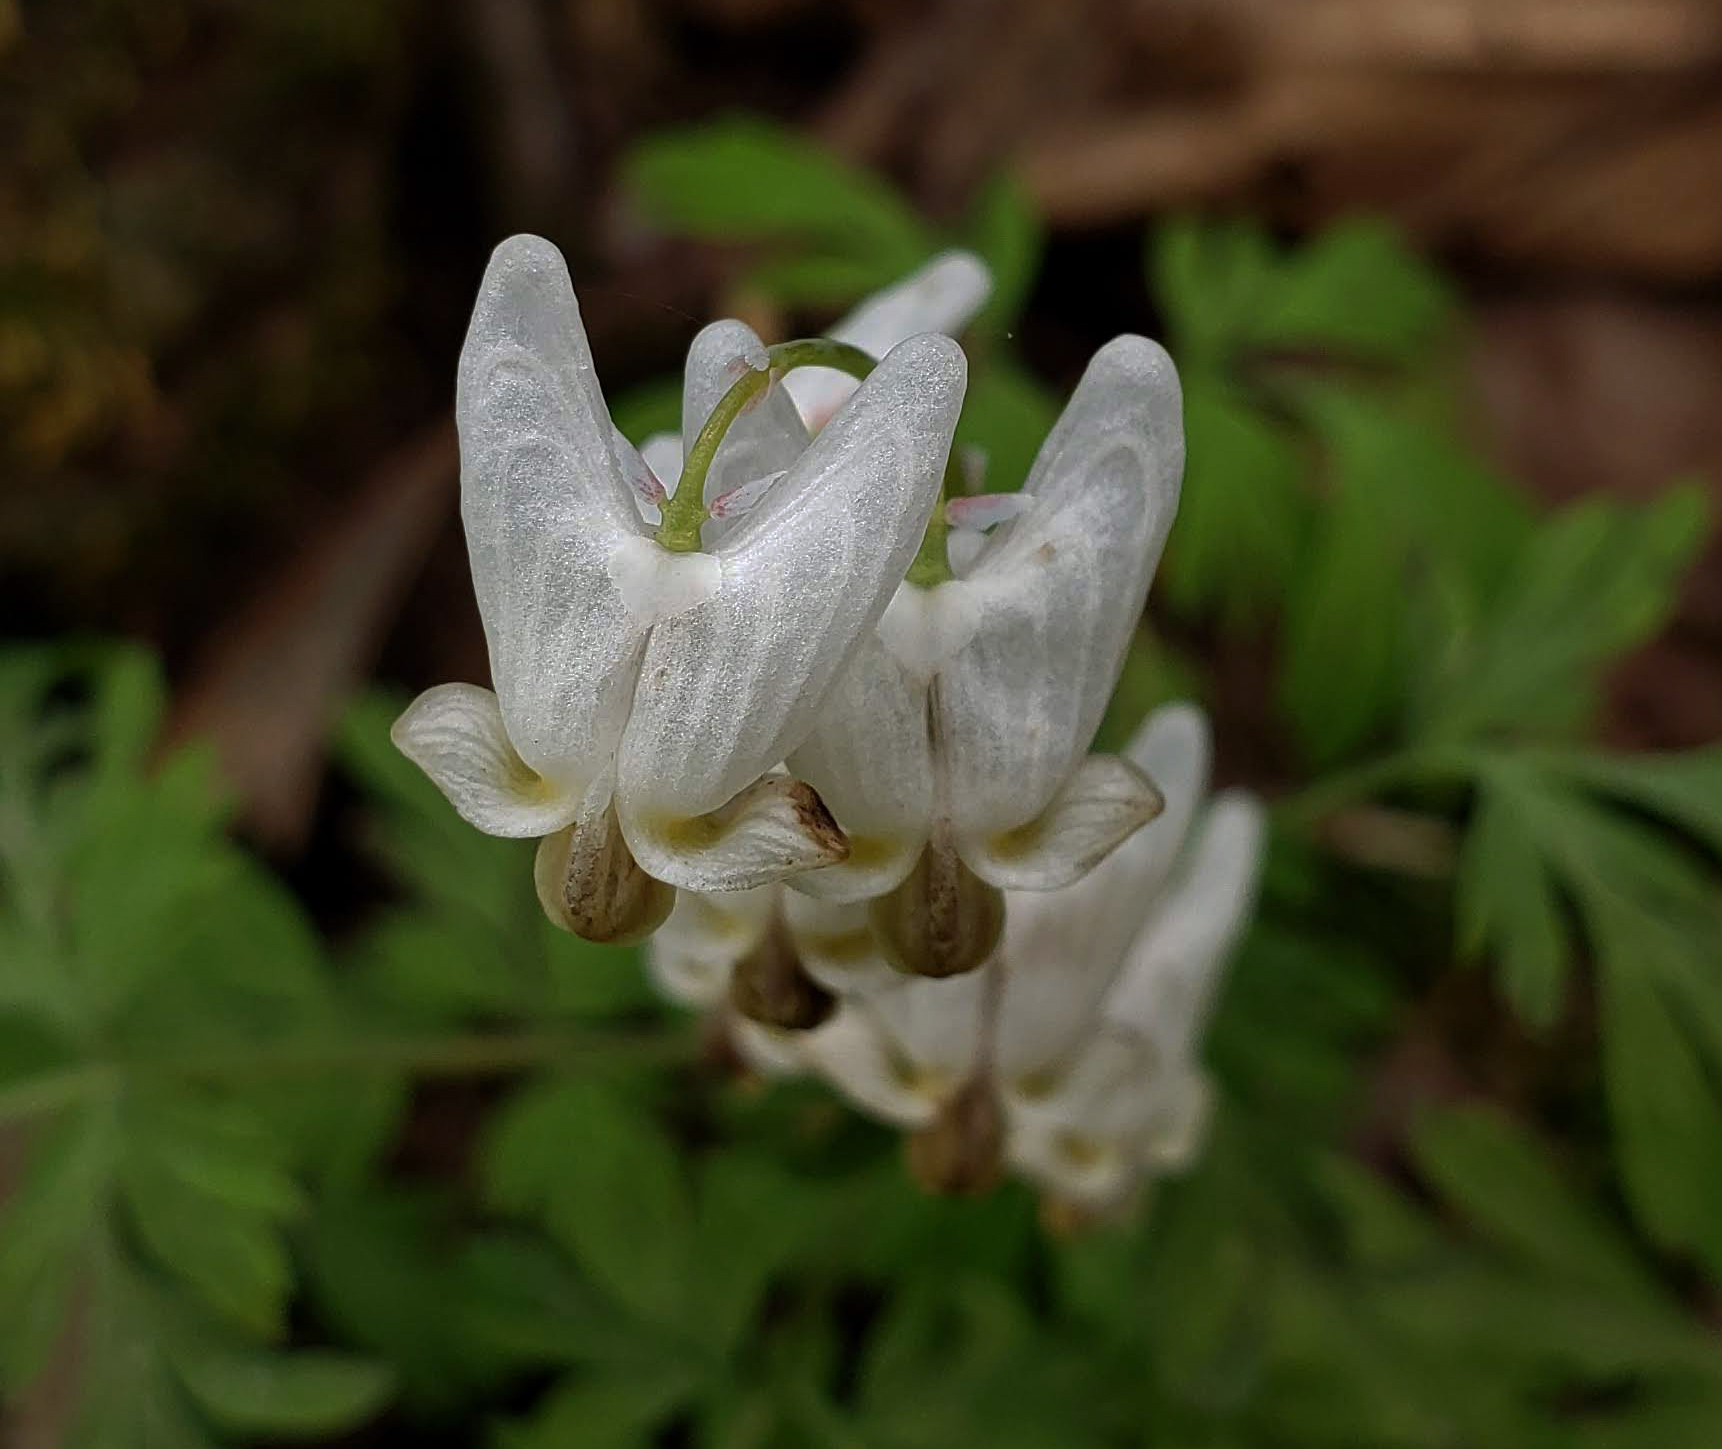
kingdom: Plantae
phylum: Tracheophyta
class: Magnoliopsida
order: Ranunculales
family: Papaveraceae
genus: Dicentra
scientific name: Dicentra cucullaria
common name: Dutchman's breeches
